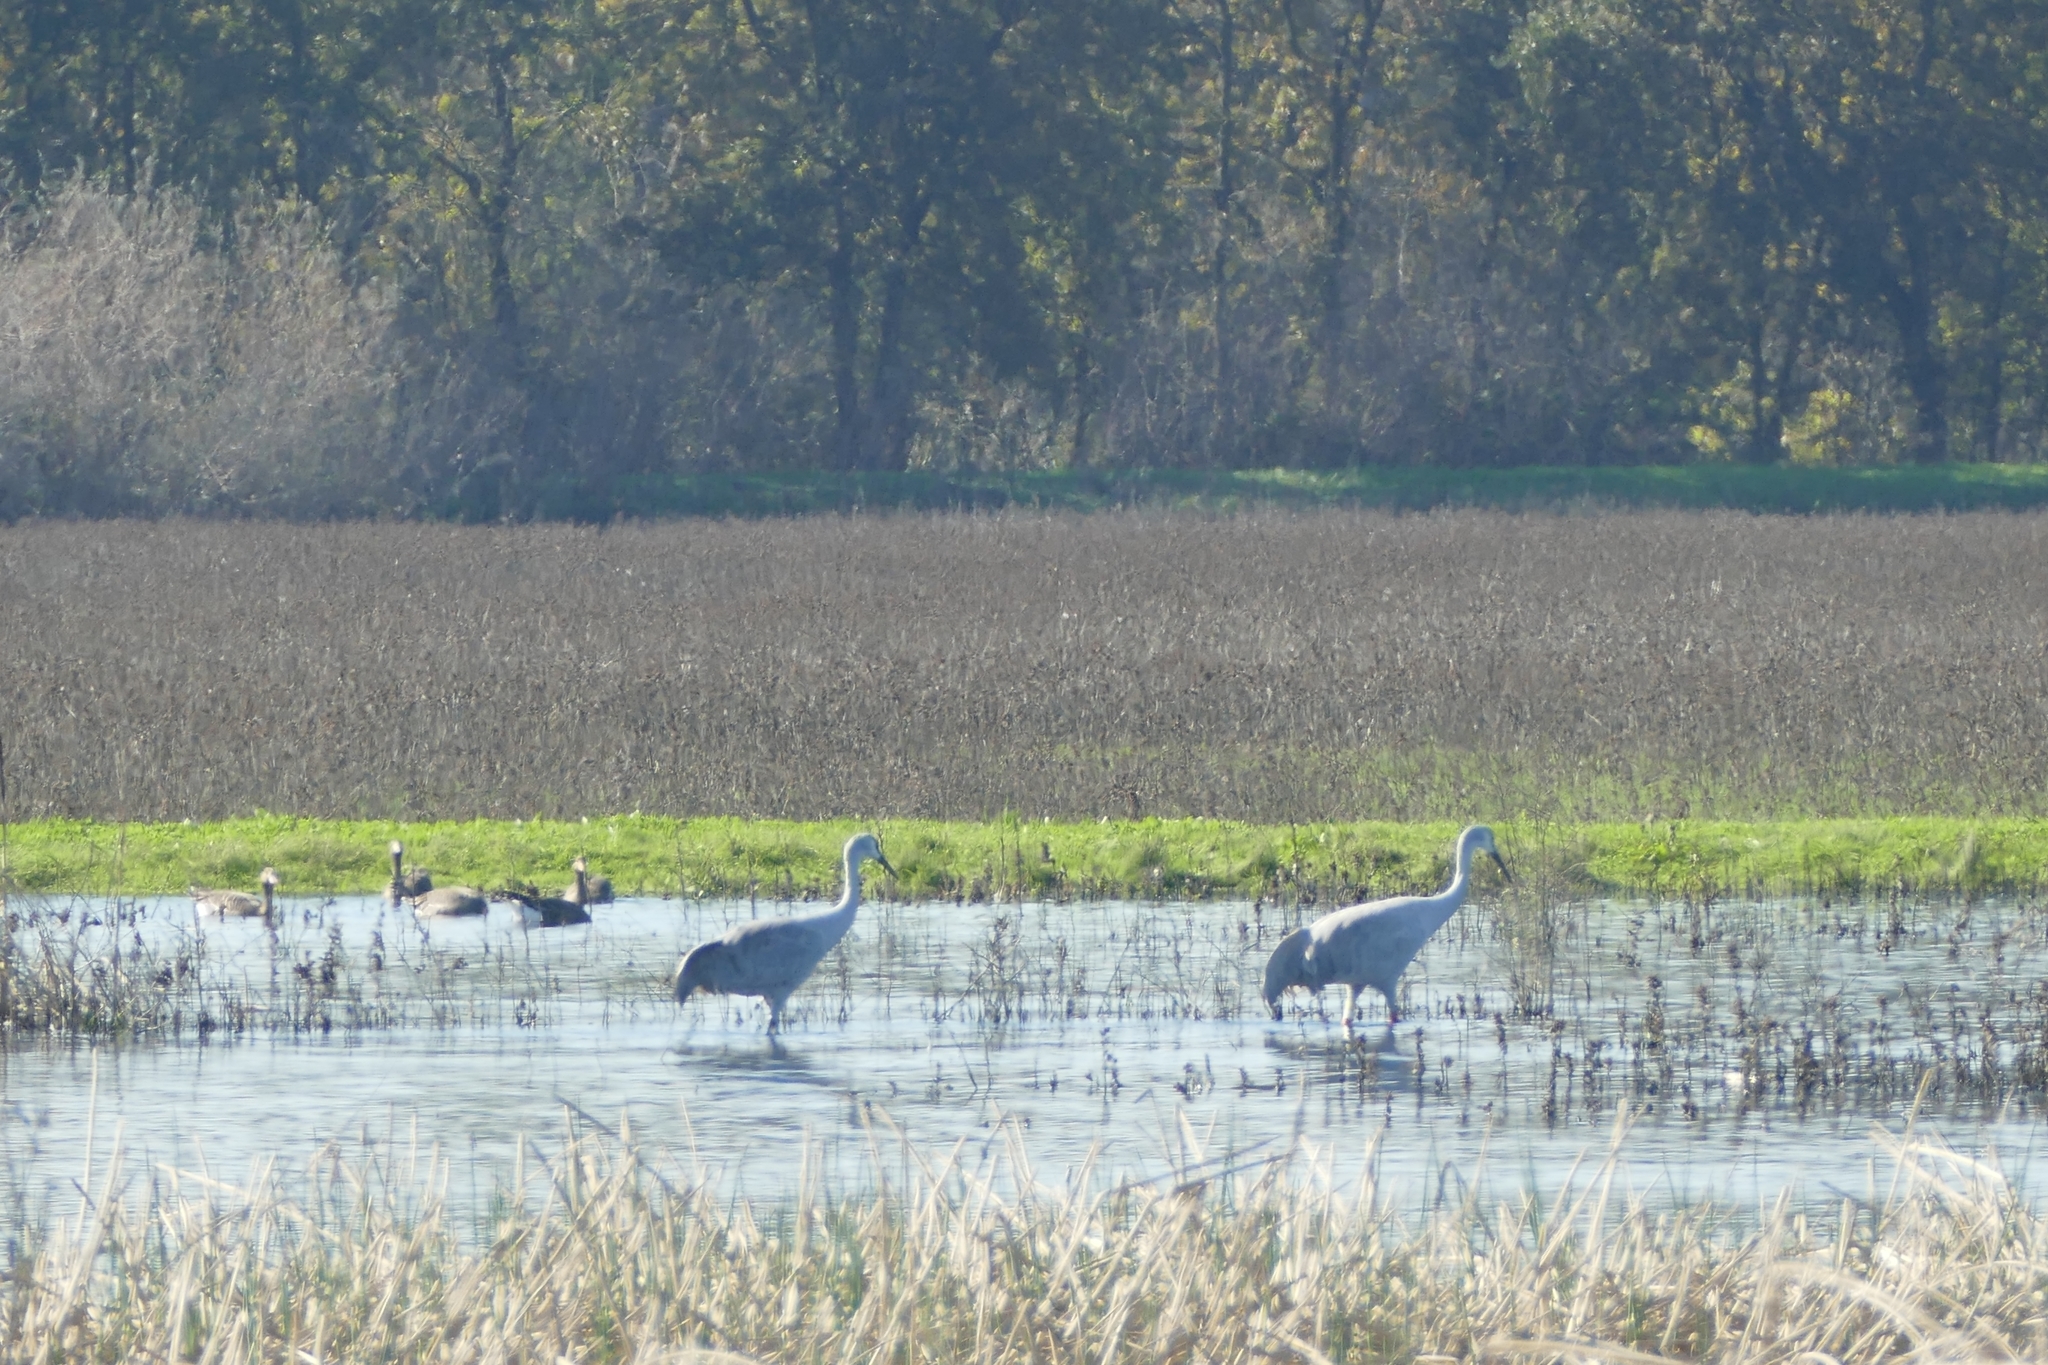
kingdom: Animalia
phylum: Chordata
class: Aves
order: Gruiformes
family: Gruidae
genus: Grus
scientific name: Grus canadensis
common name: Sandhill crane
